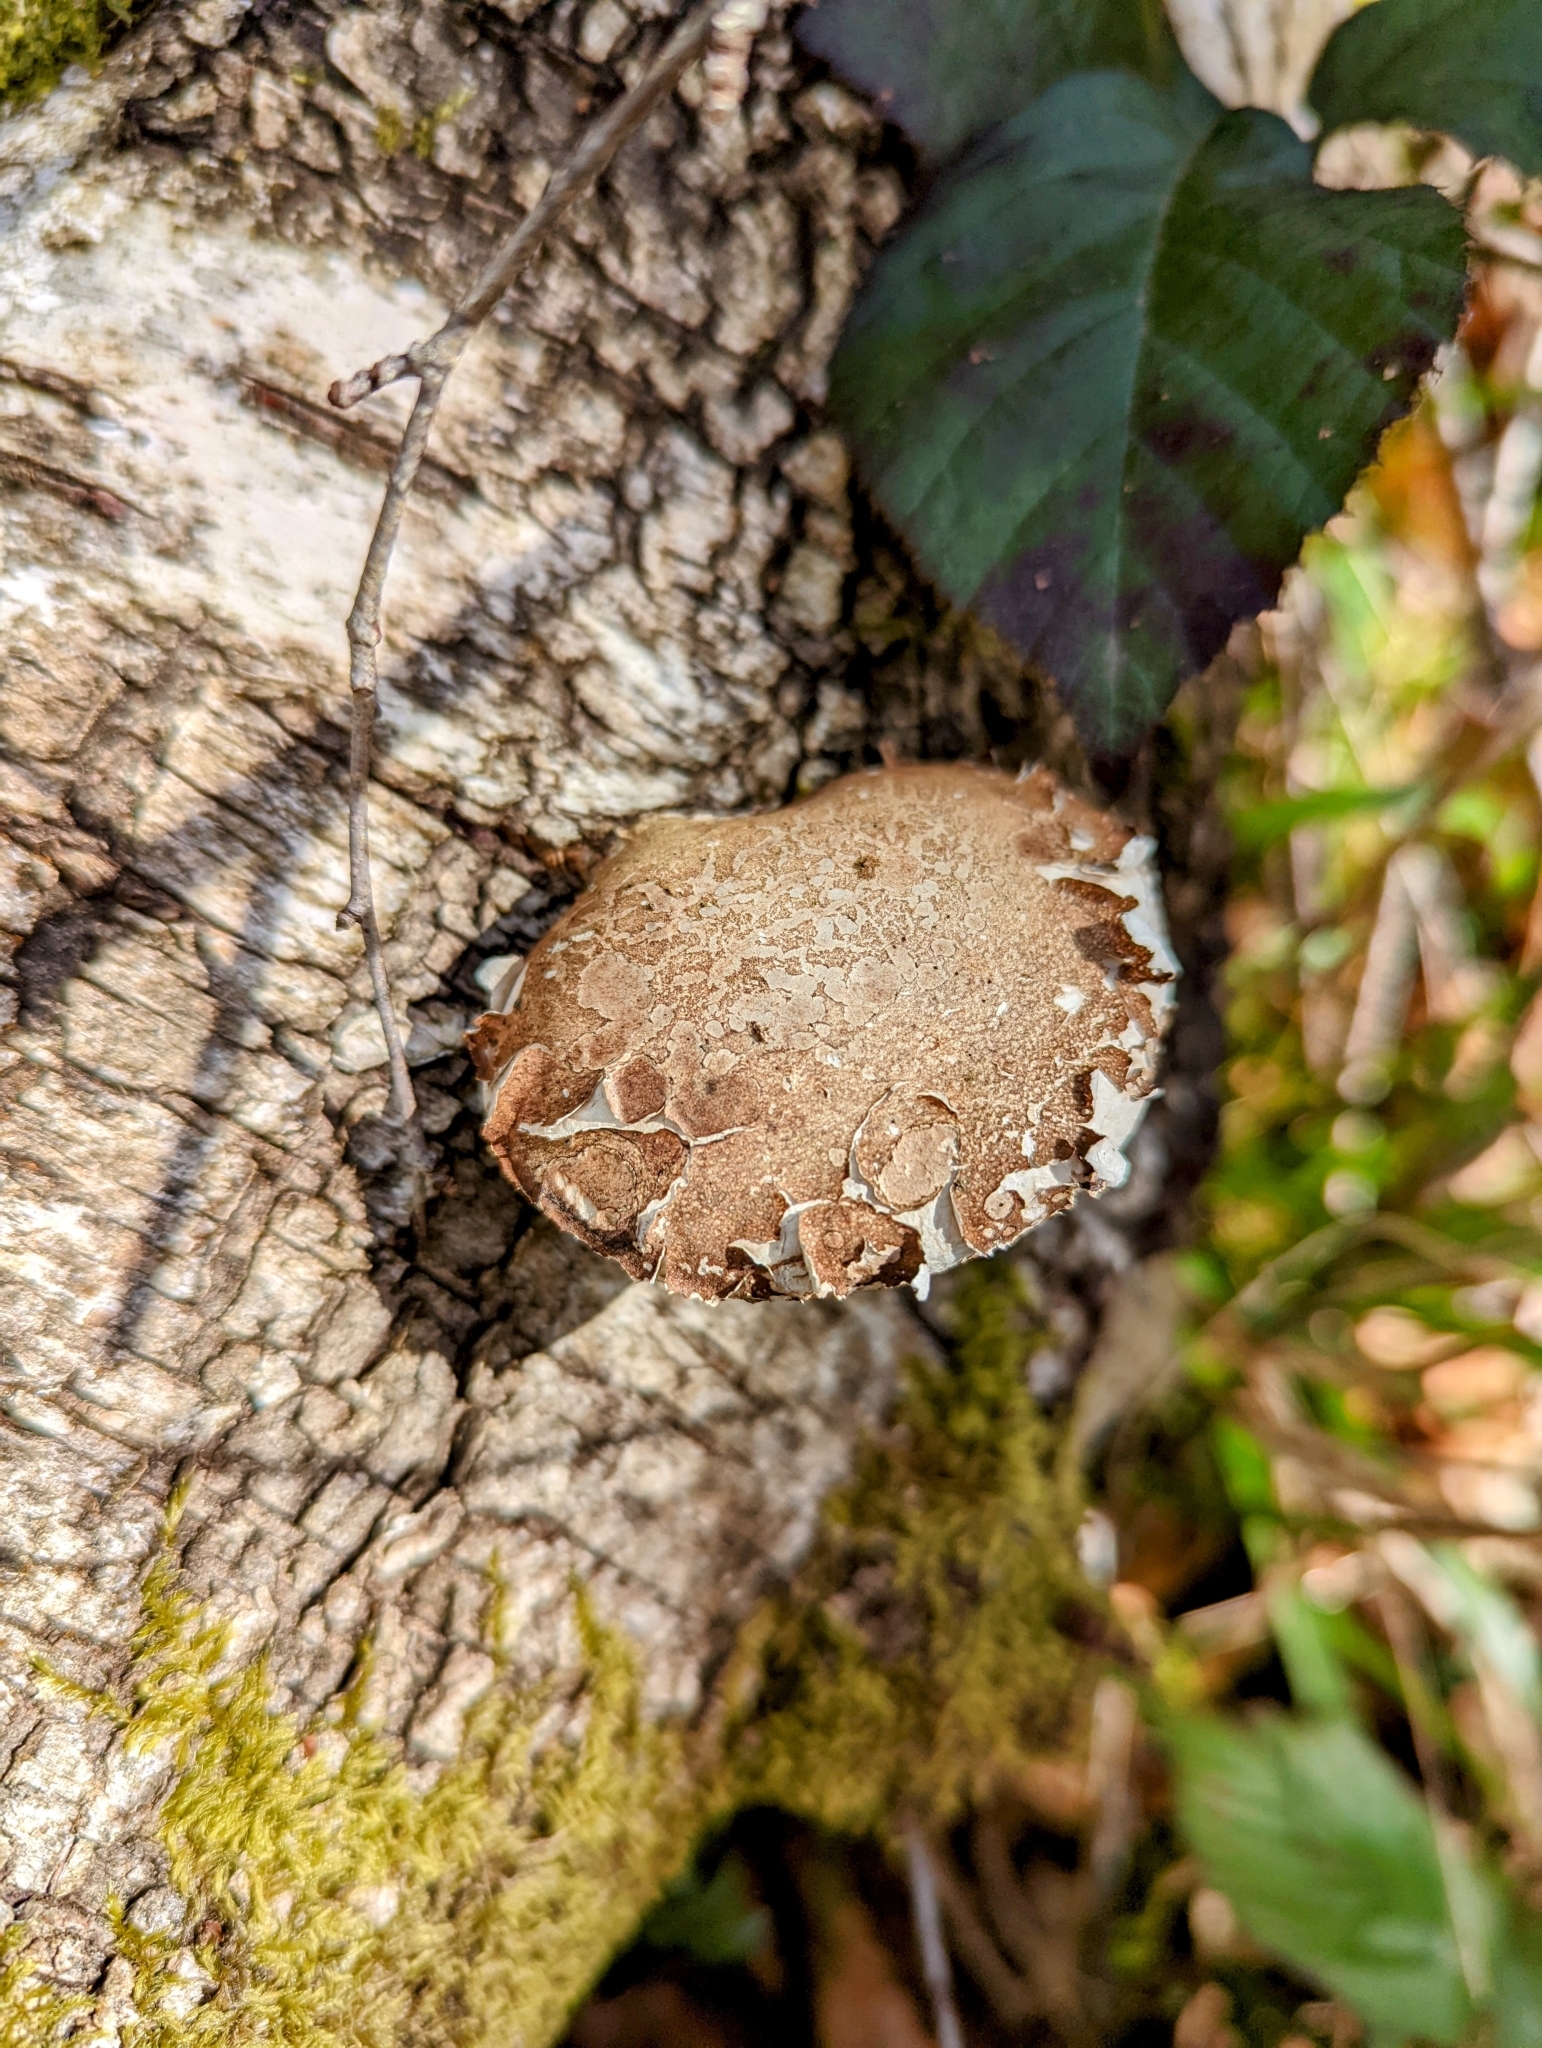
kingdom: Fungi
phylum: Basidiomycota
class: Agaricomycetes
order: Polyporales
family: Fomitopsidaceae
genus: Fomitopsis
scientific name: Fomitopsis betulina
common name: Birch polypore
